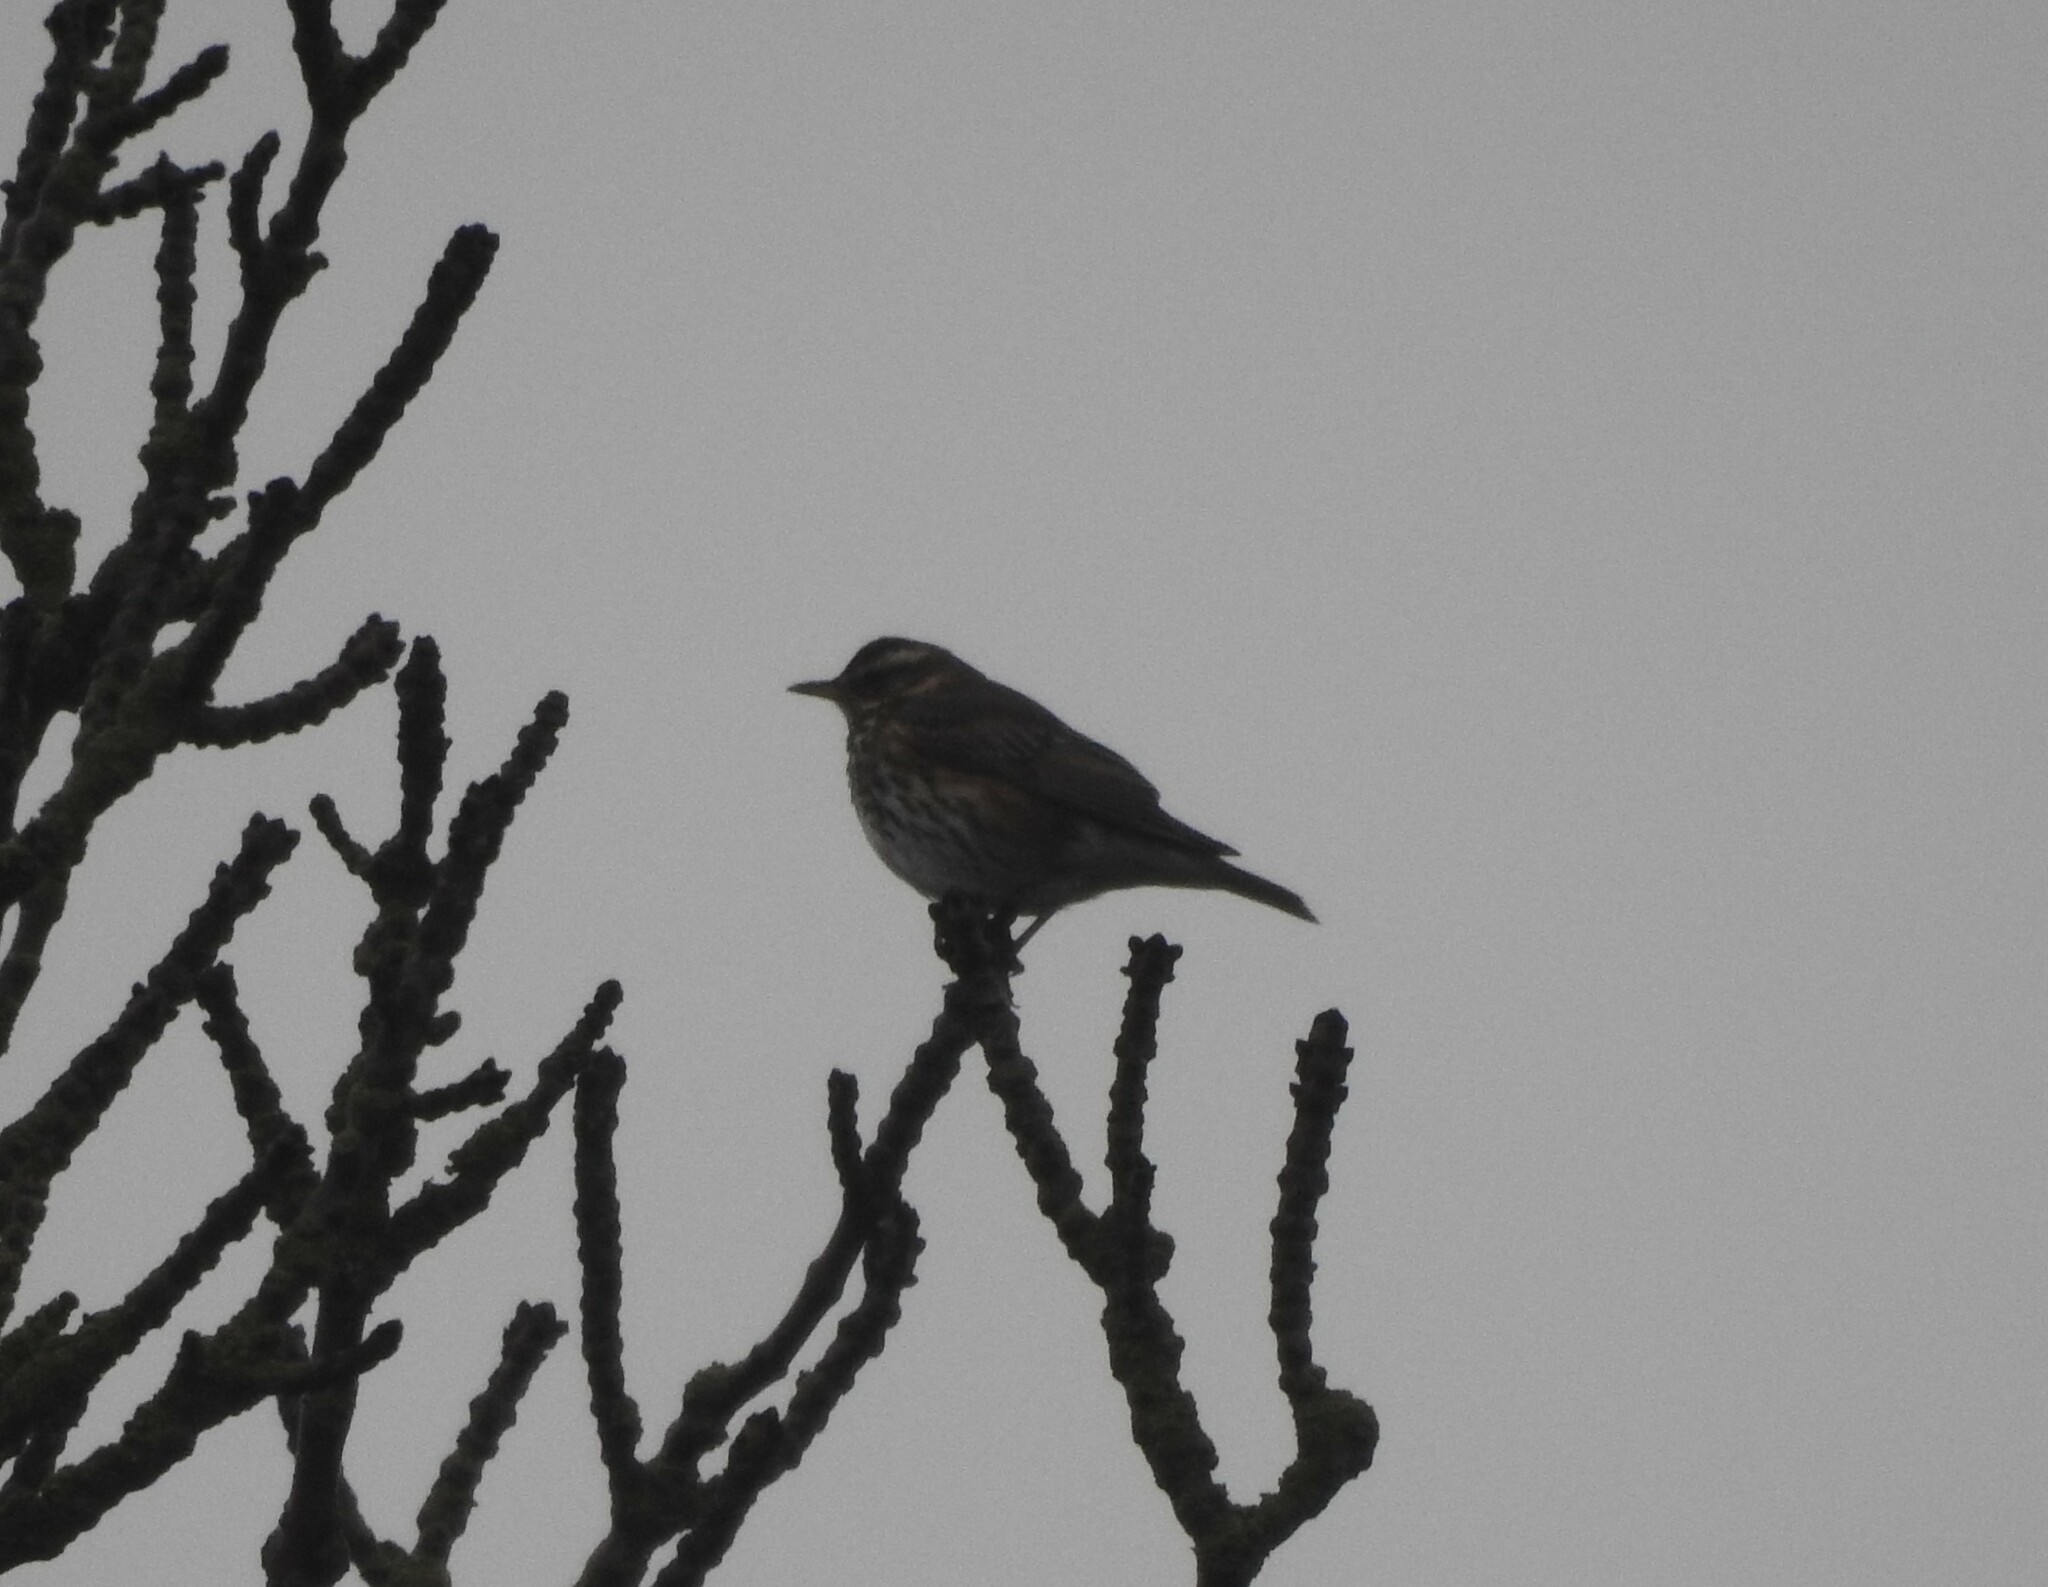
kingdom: Animalia
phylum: Chordata
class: Aves
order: Passeriformes
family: Turdidae
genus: Turdus
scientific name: Turdus iliacus
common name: Redwing
